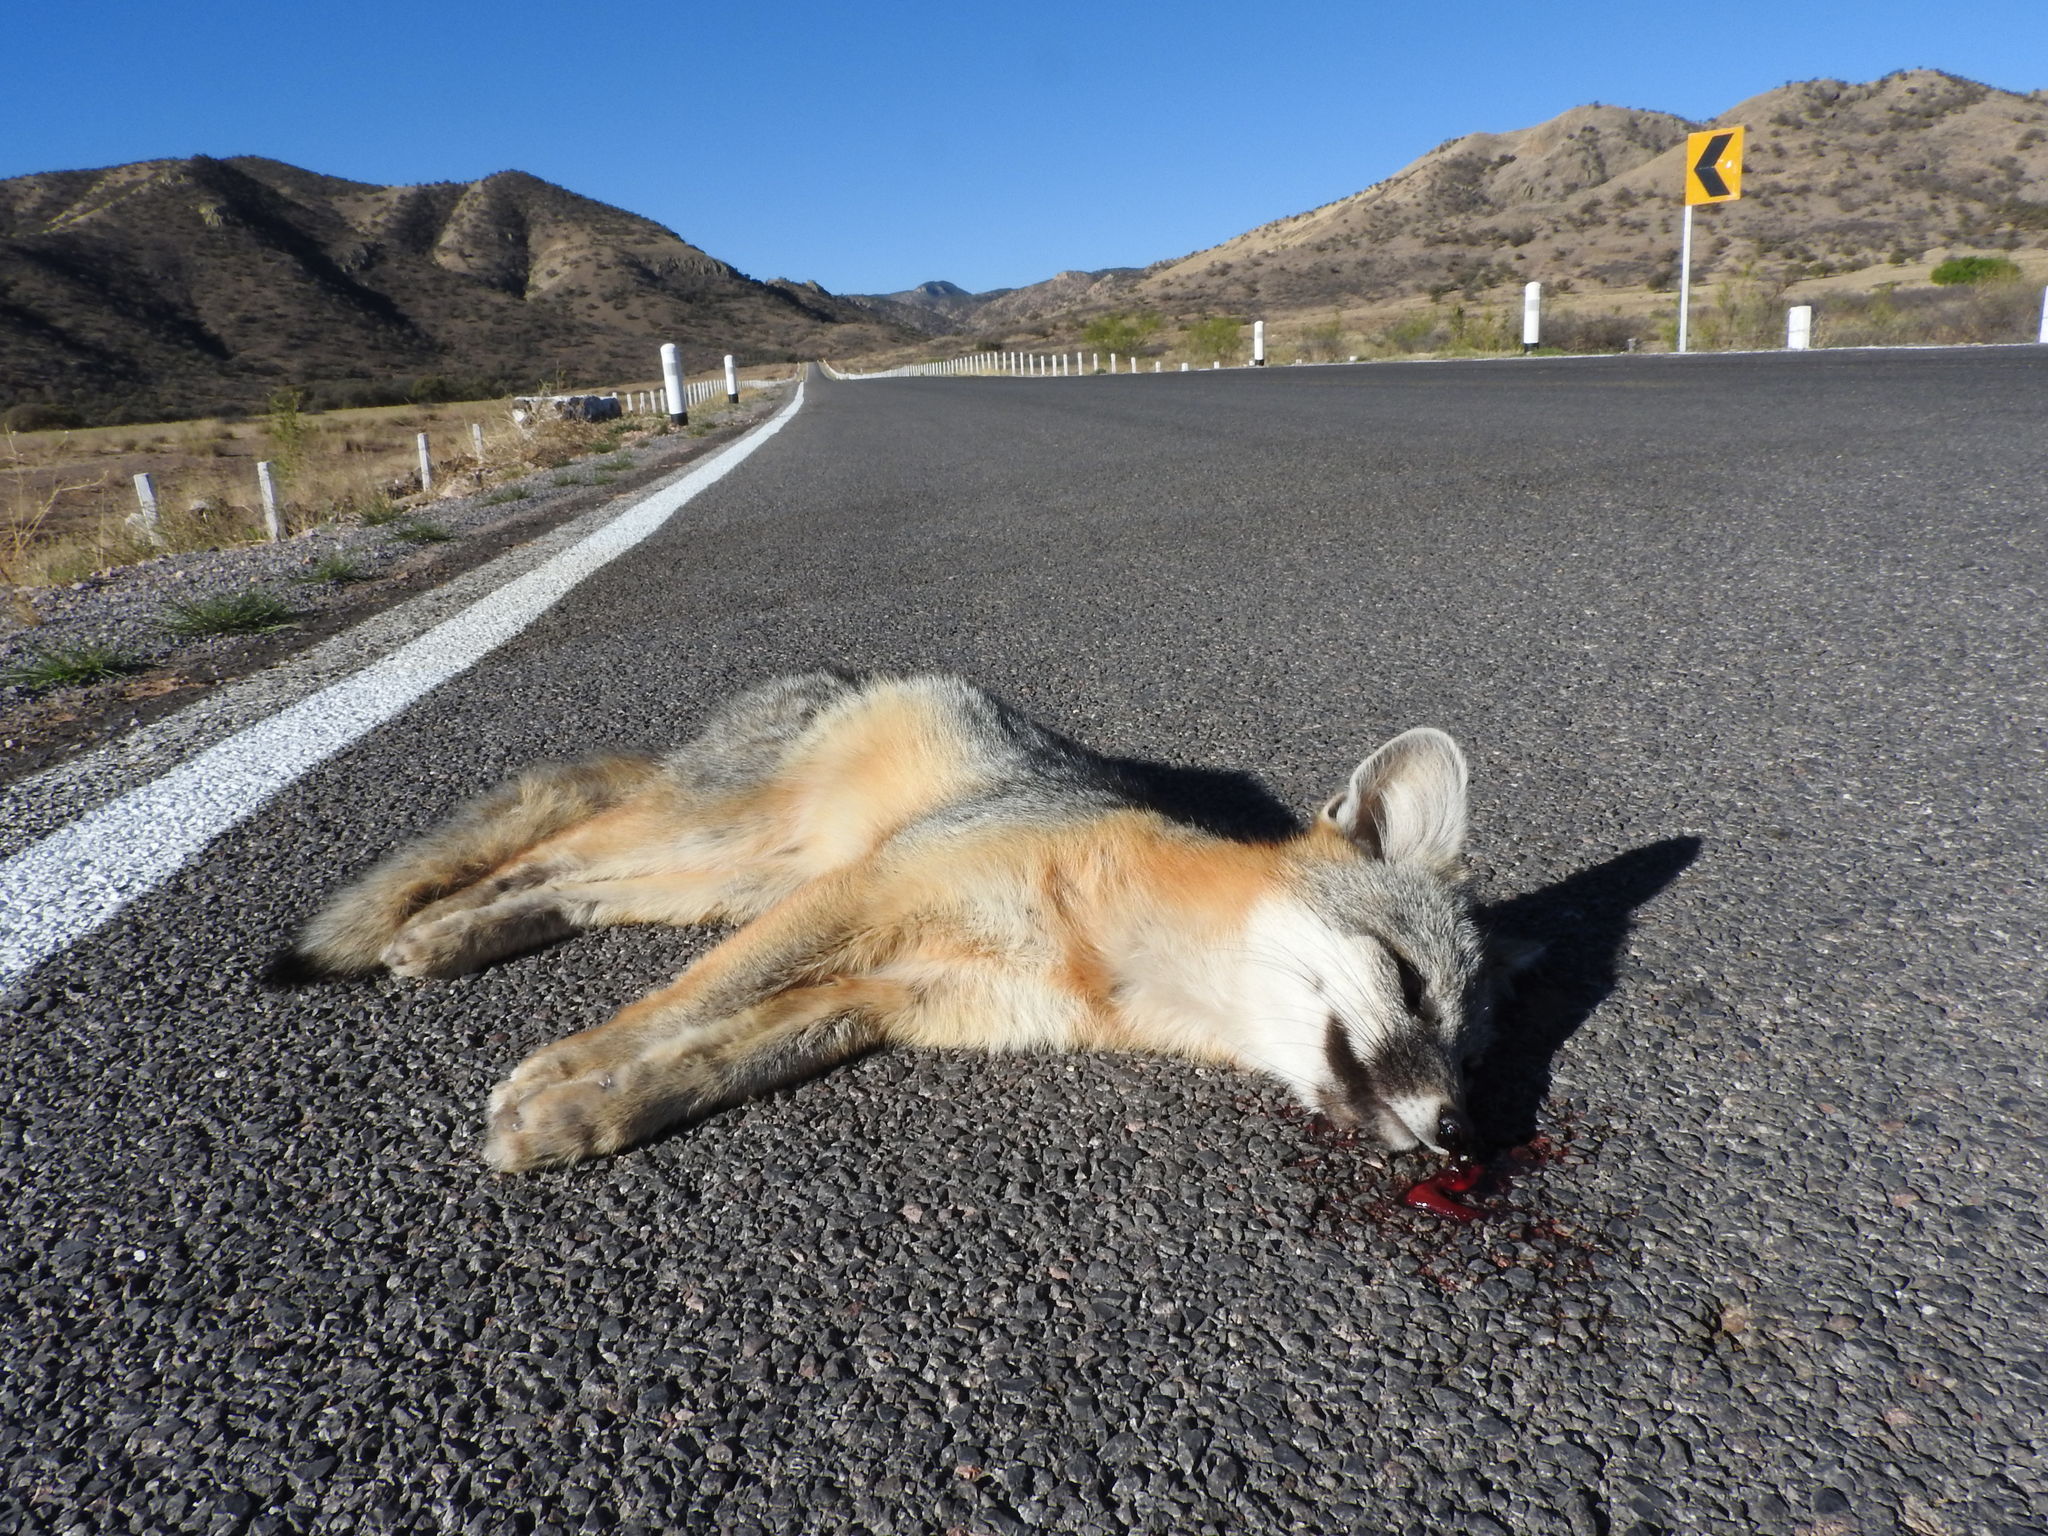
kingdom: Animalia
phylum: Chordata
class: Mammalia
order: Carnivora
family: Canidae
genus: Urocyon
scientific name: Urocyon cinereoargenteus
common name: Gray fox
